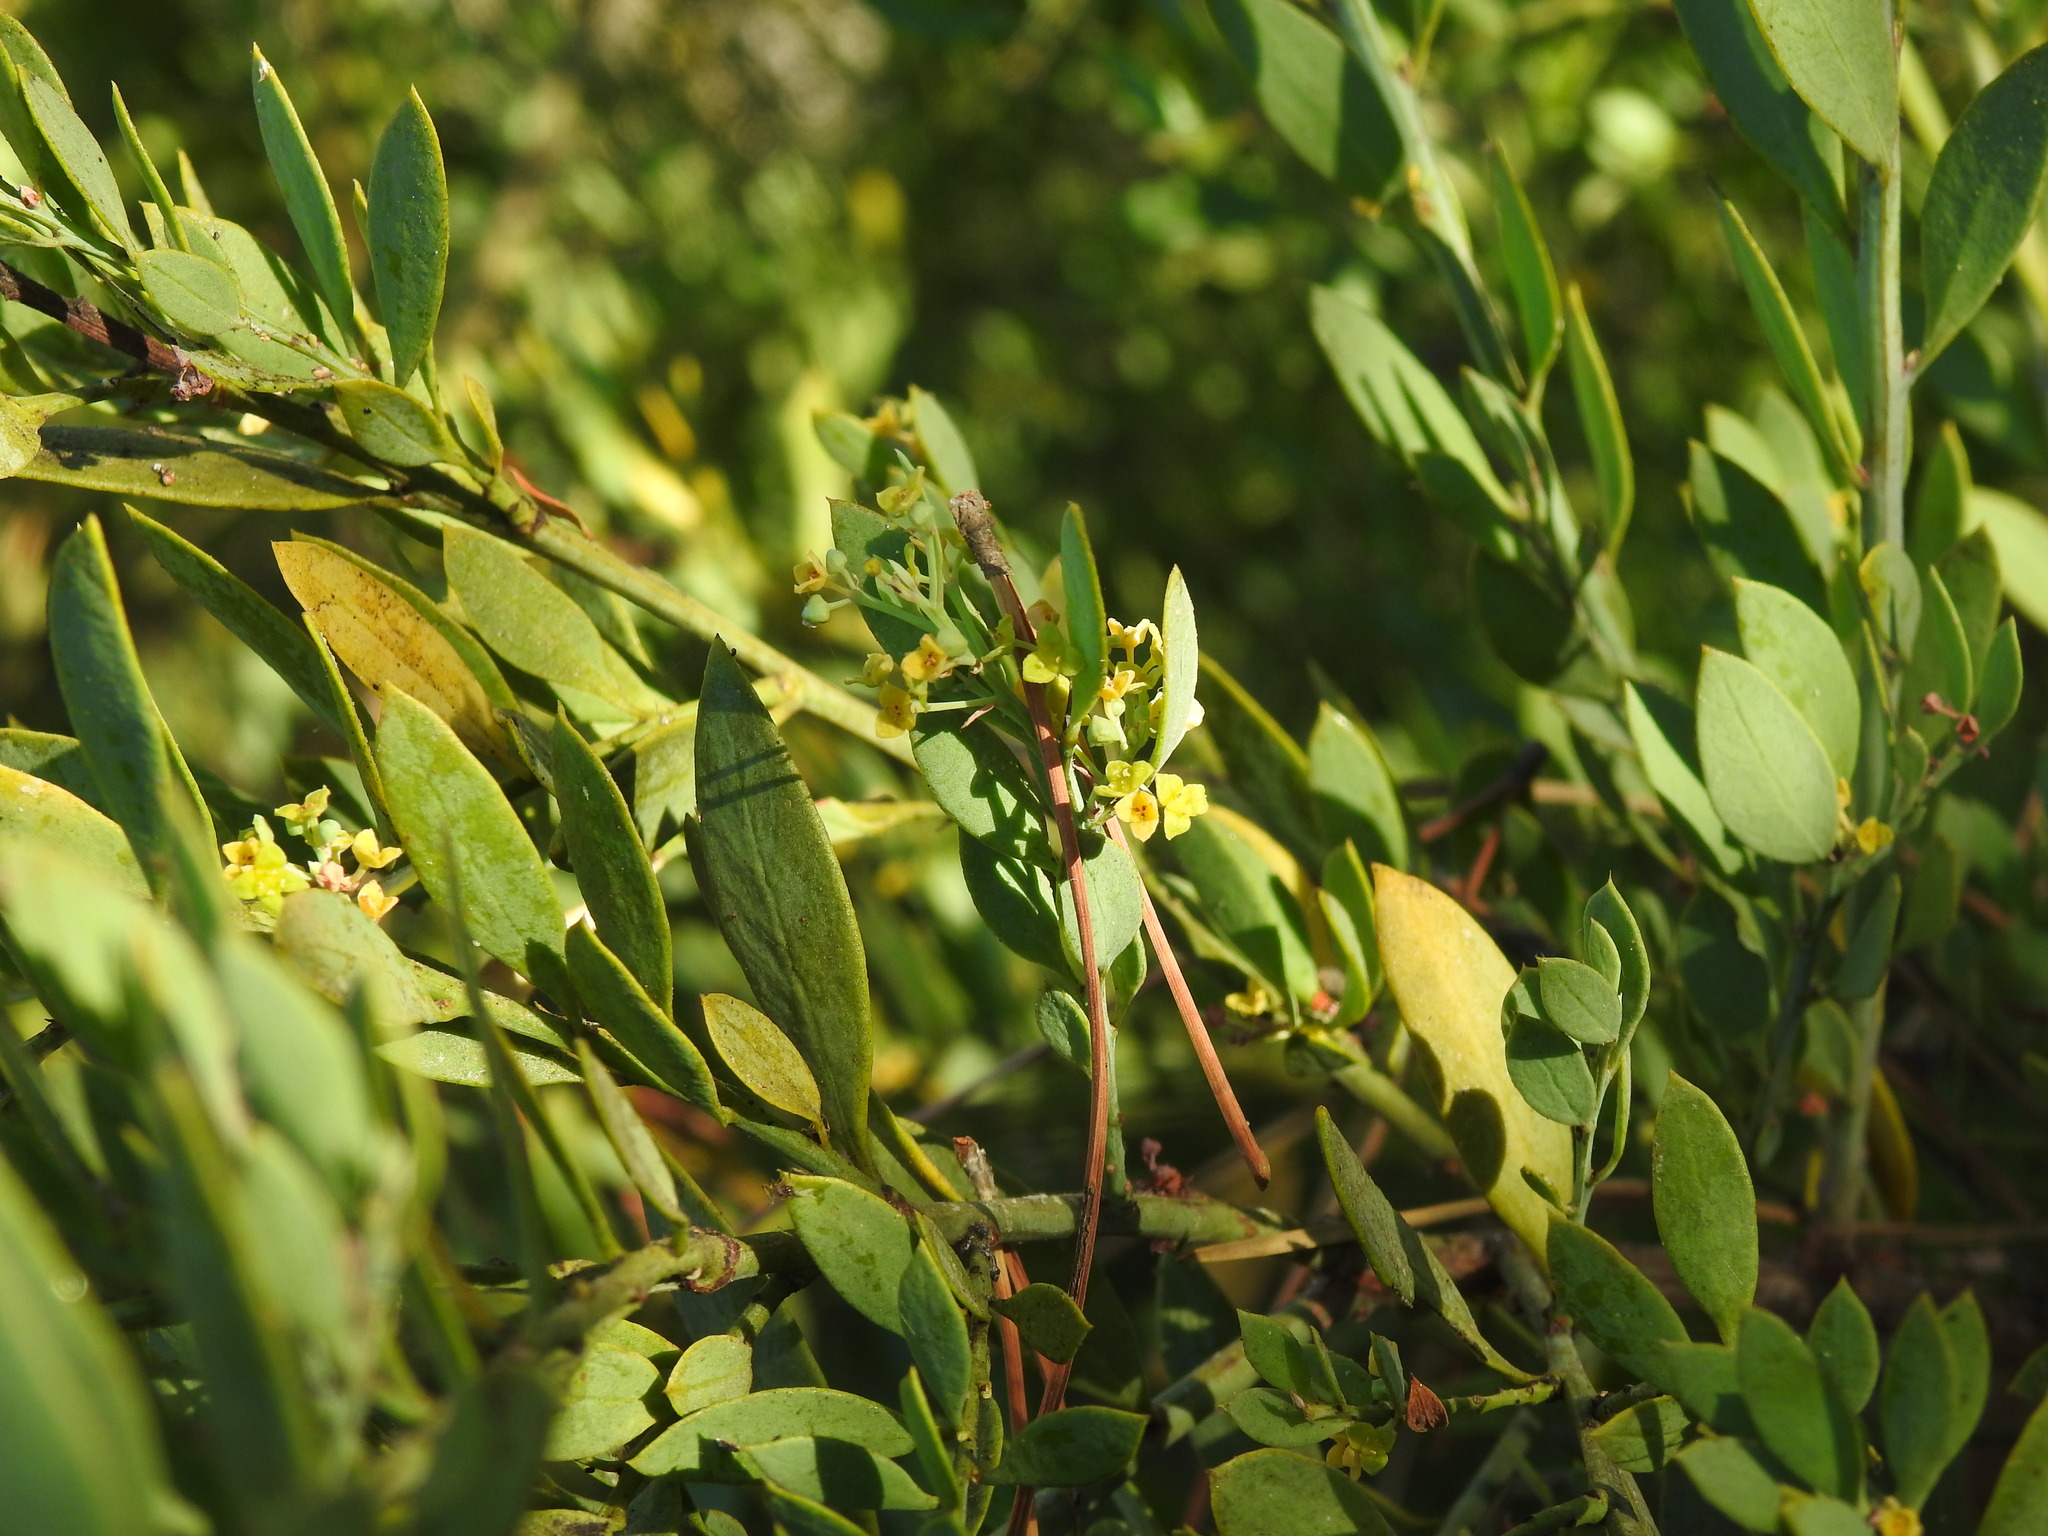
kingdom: Plantae
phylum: Tracheophyta
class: Magnoliopsida
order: Santalales
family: Santalaceae
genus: Osyris
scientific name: Osyris lanceolata
